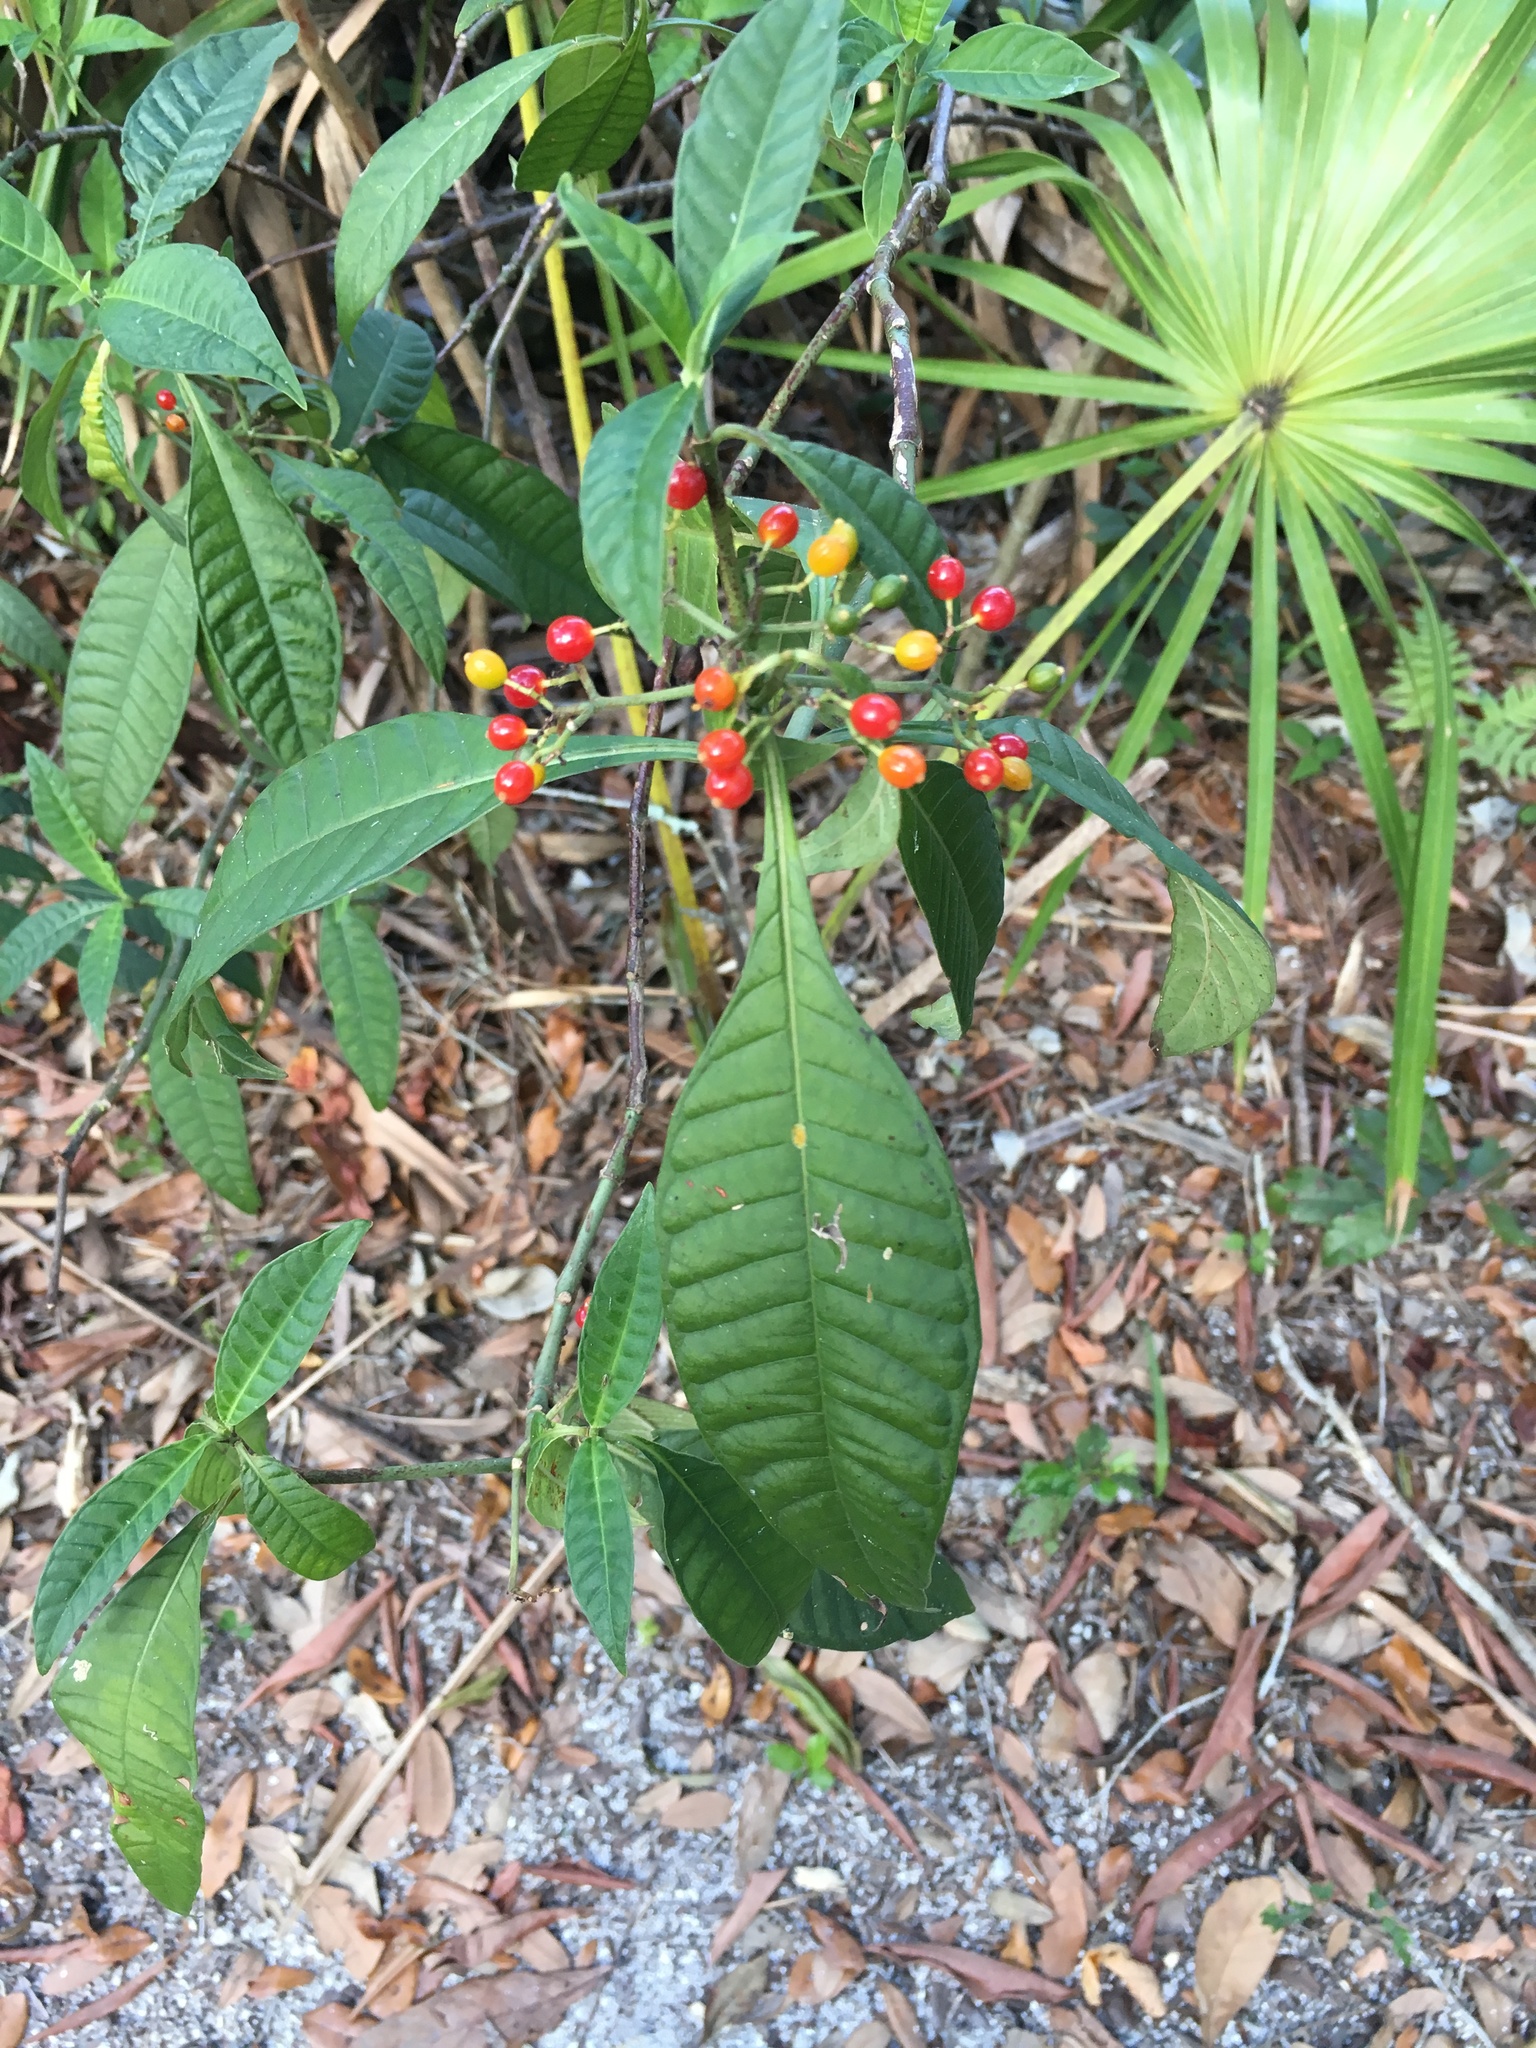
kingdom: Plantae
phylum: Tracheophyta
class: Magnoliopsida
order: Gentianales
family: Rubiaceae
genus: Psychotria
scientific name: Psychotria tenuifolia
